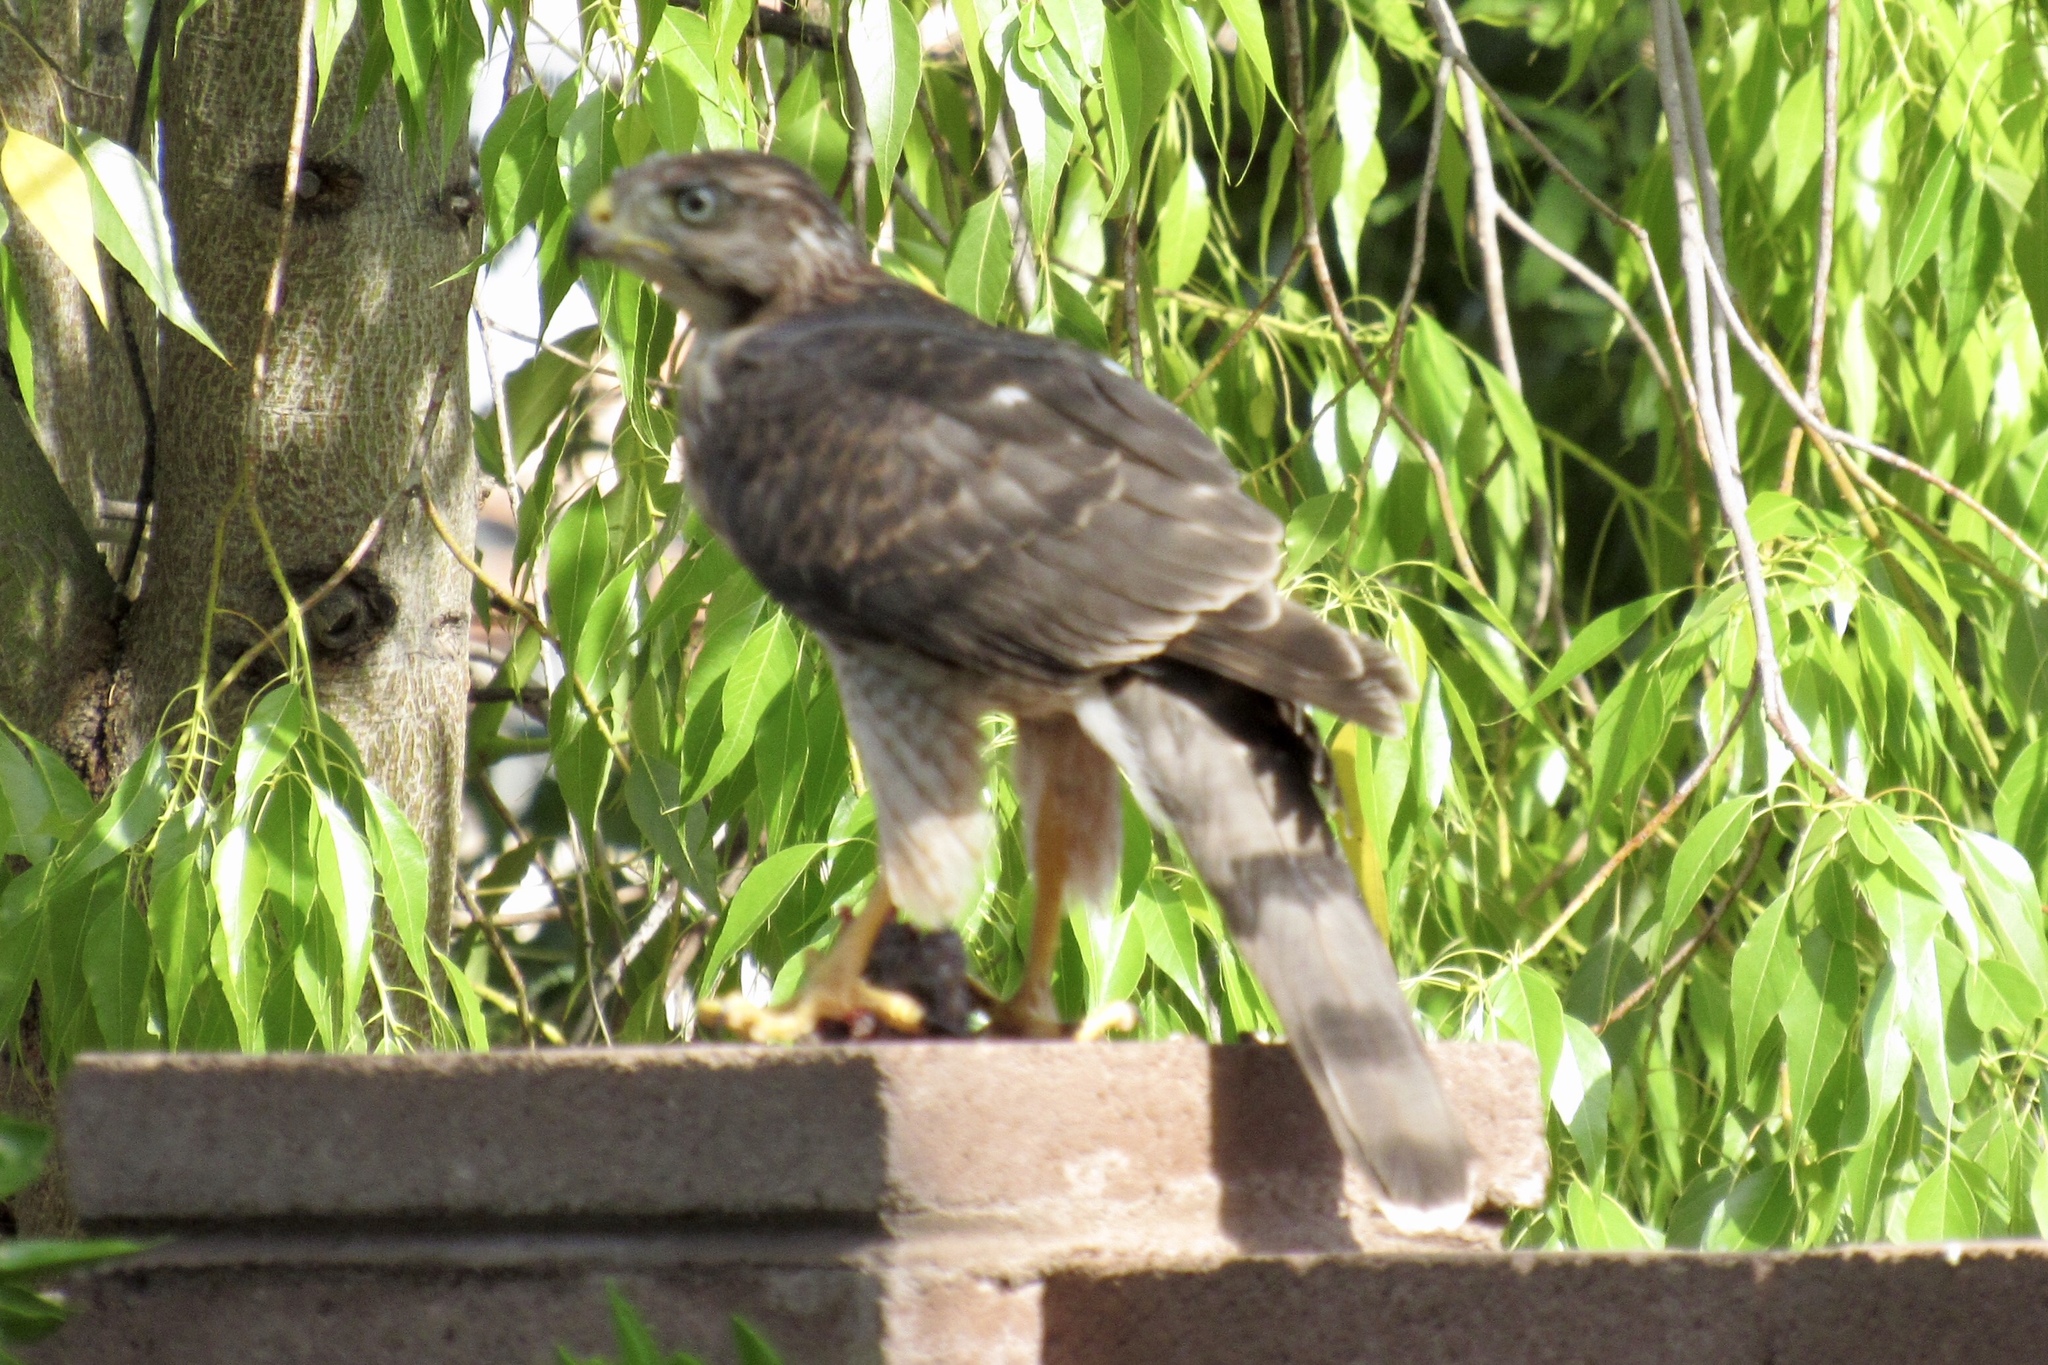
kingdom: Animalia
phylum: Chordata
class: Aves
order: Accipitriformes
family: Accipitridae
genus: Accipiter
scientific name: Accipiter cooperii
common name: Cooper's hawk
